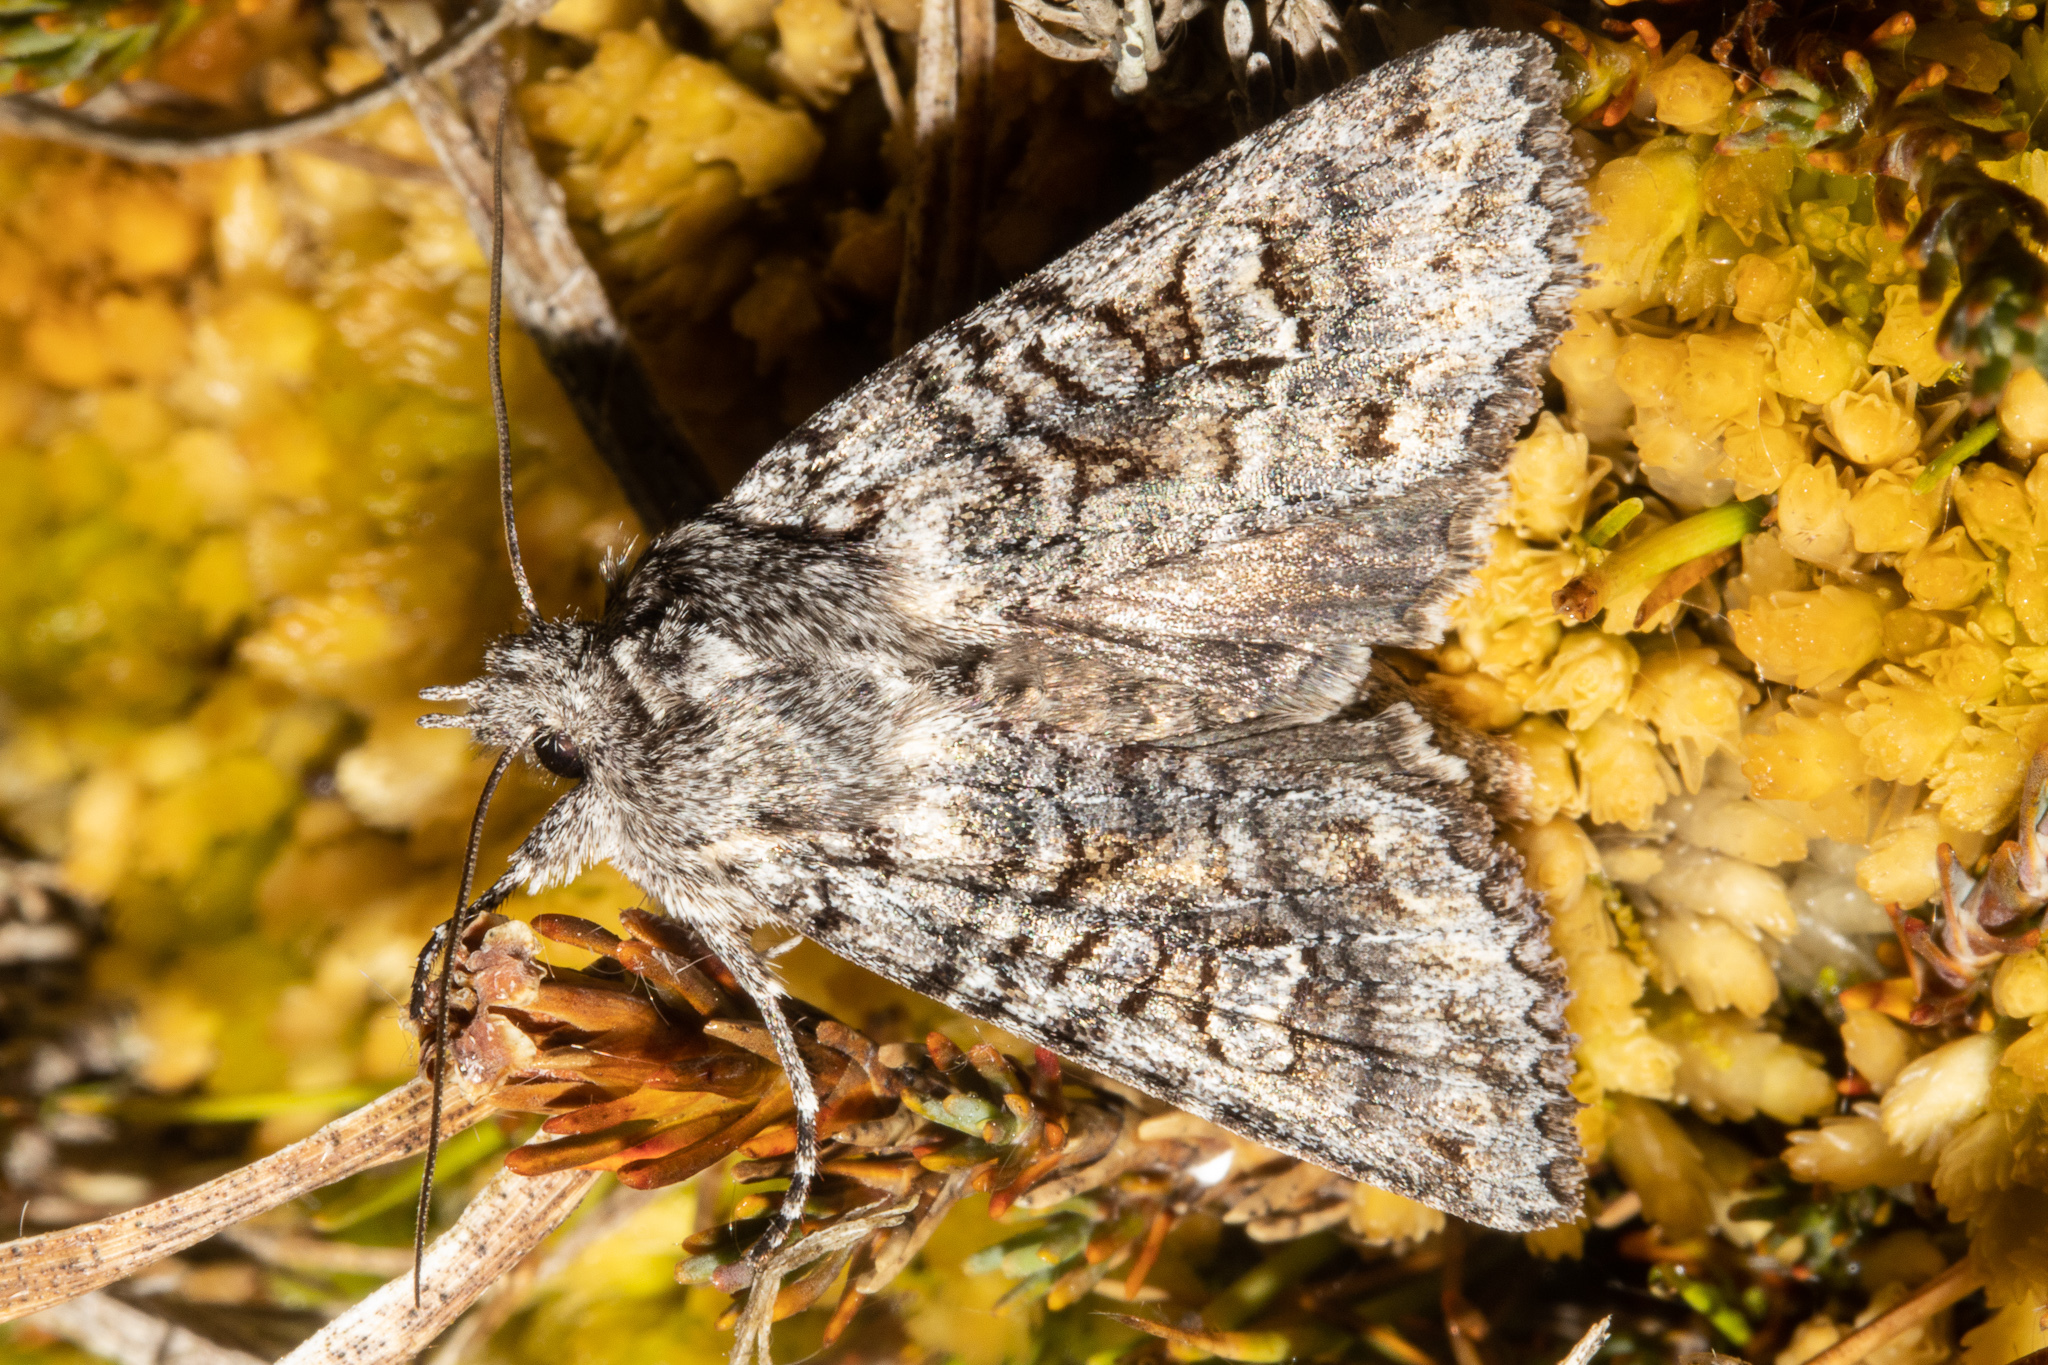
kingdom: Animalia
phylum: Arthropoda
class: Insecta
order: Lepidoptera
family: Noctuidae
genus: Physetica
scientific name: Physetica longstaffii
